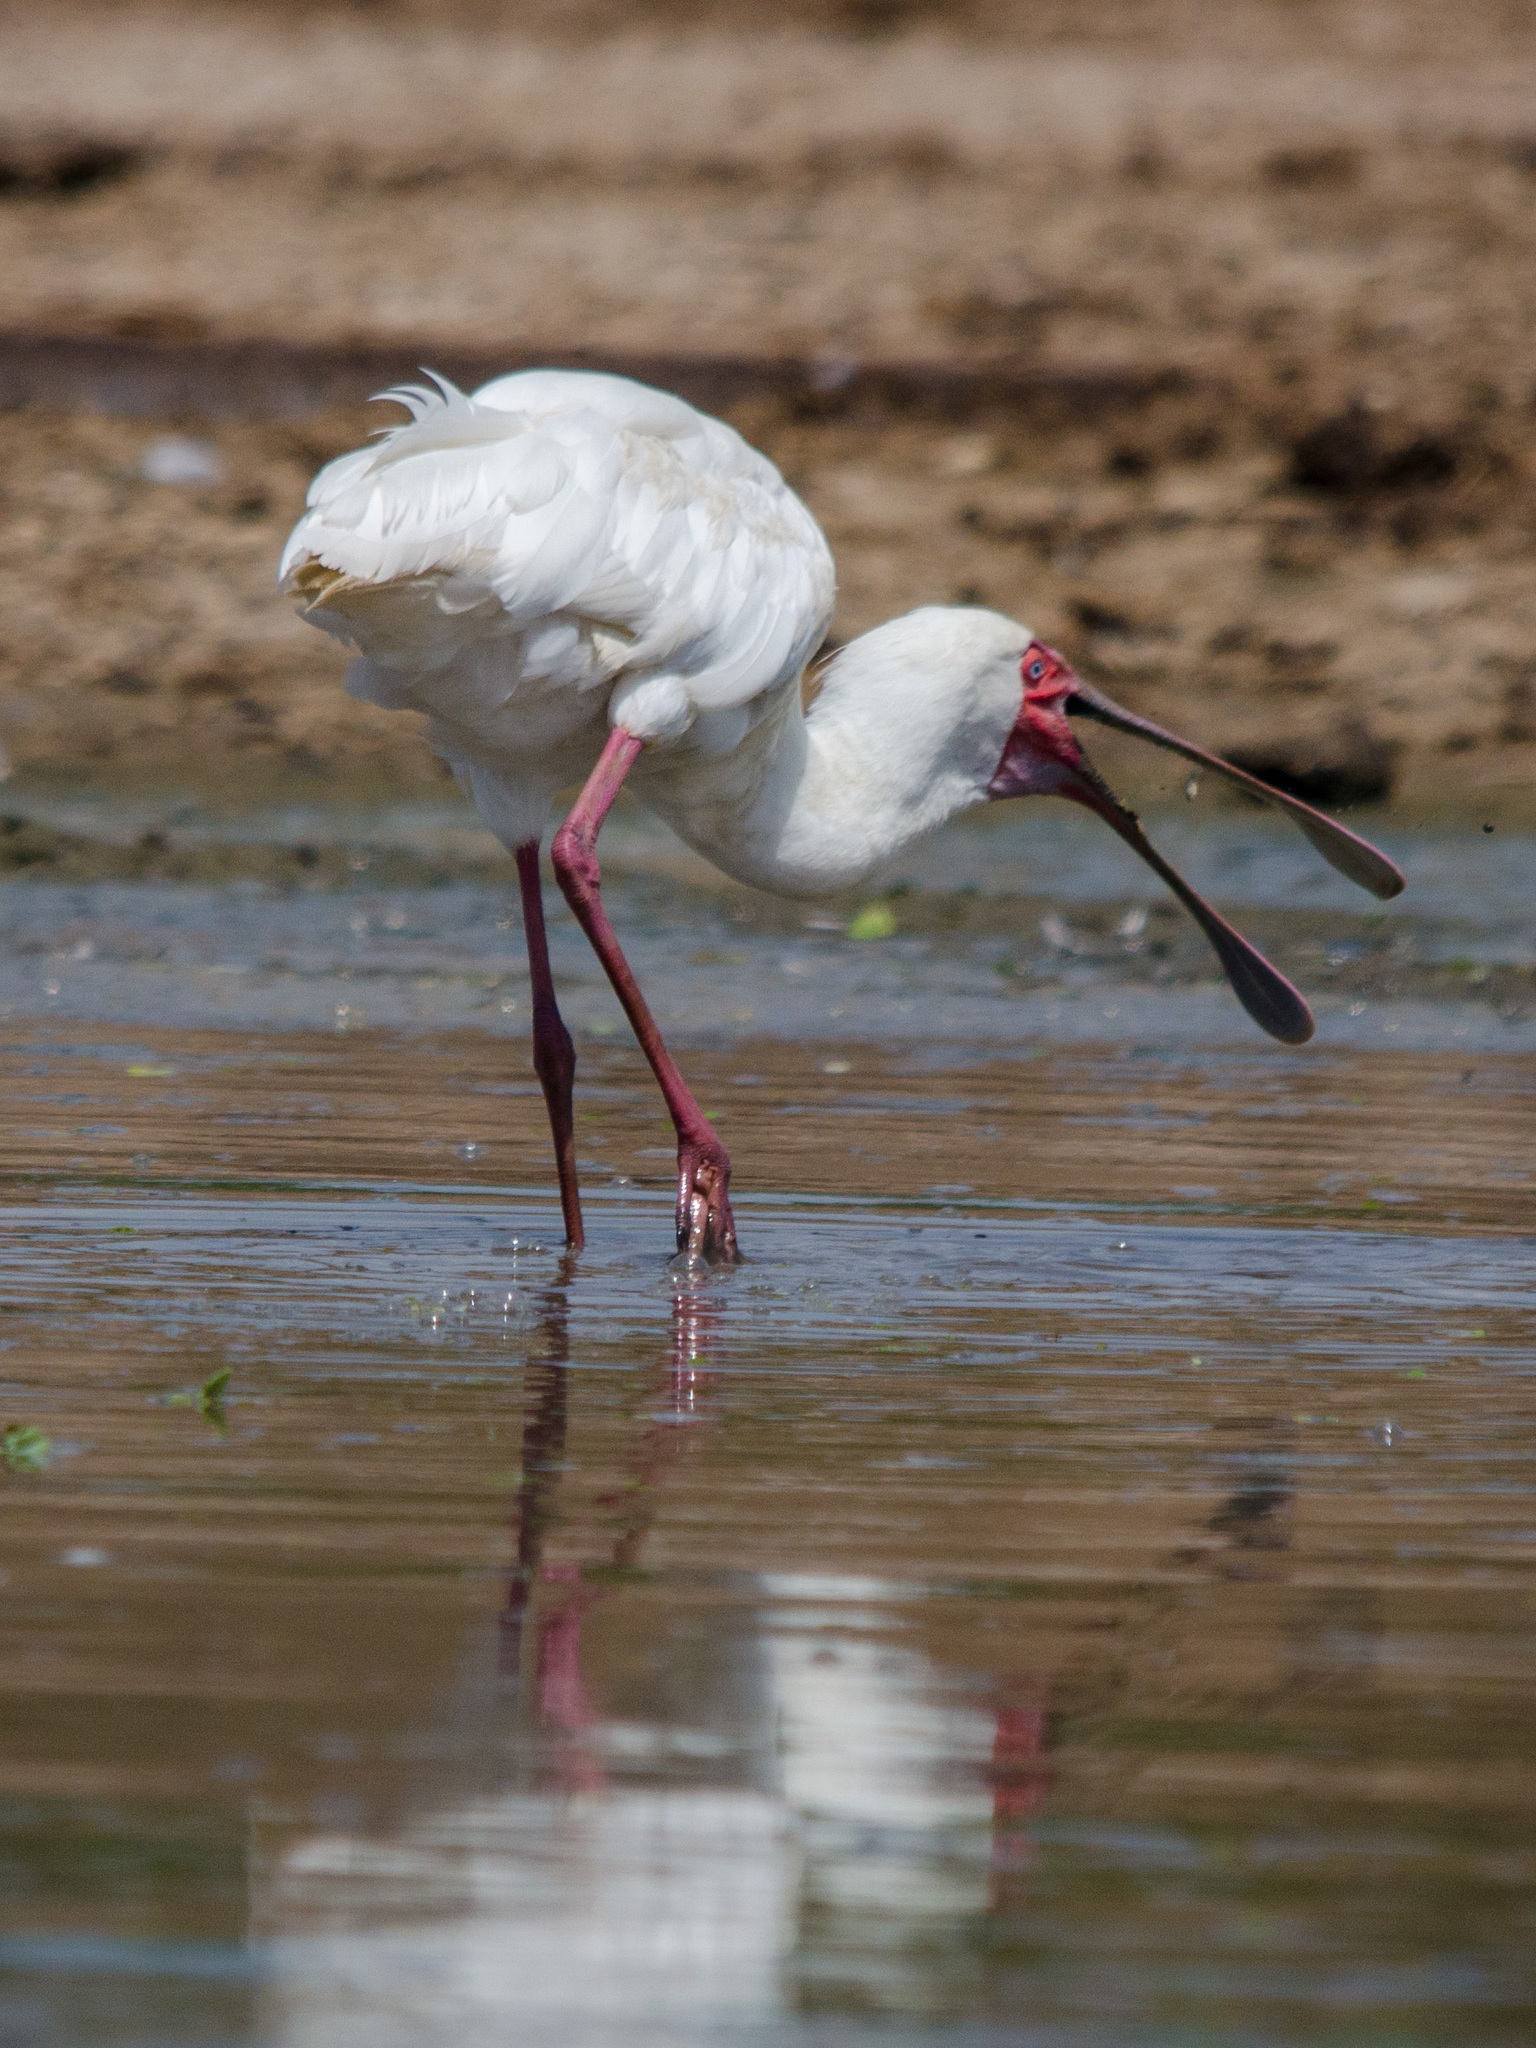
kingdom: Animalia
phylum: Chordata
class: Aves
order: Pelecaniformes
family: Threskiornithidae
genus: Platalea
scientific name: Platalea alba
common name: African spoonbill
